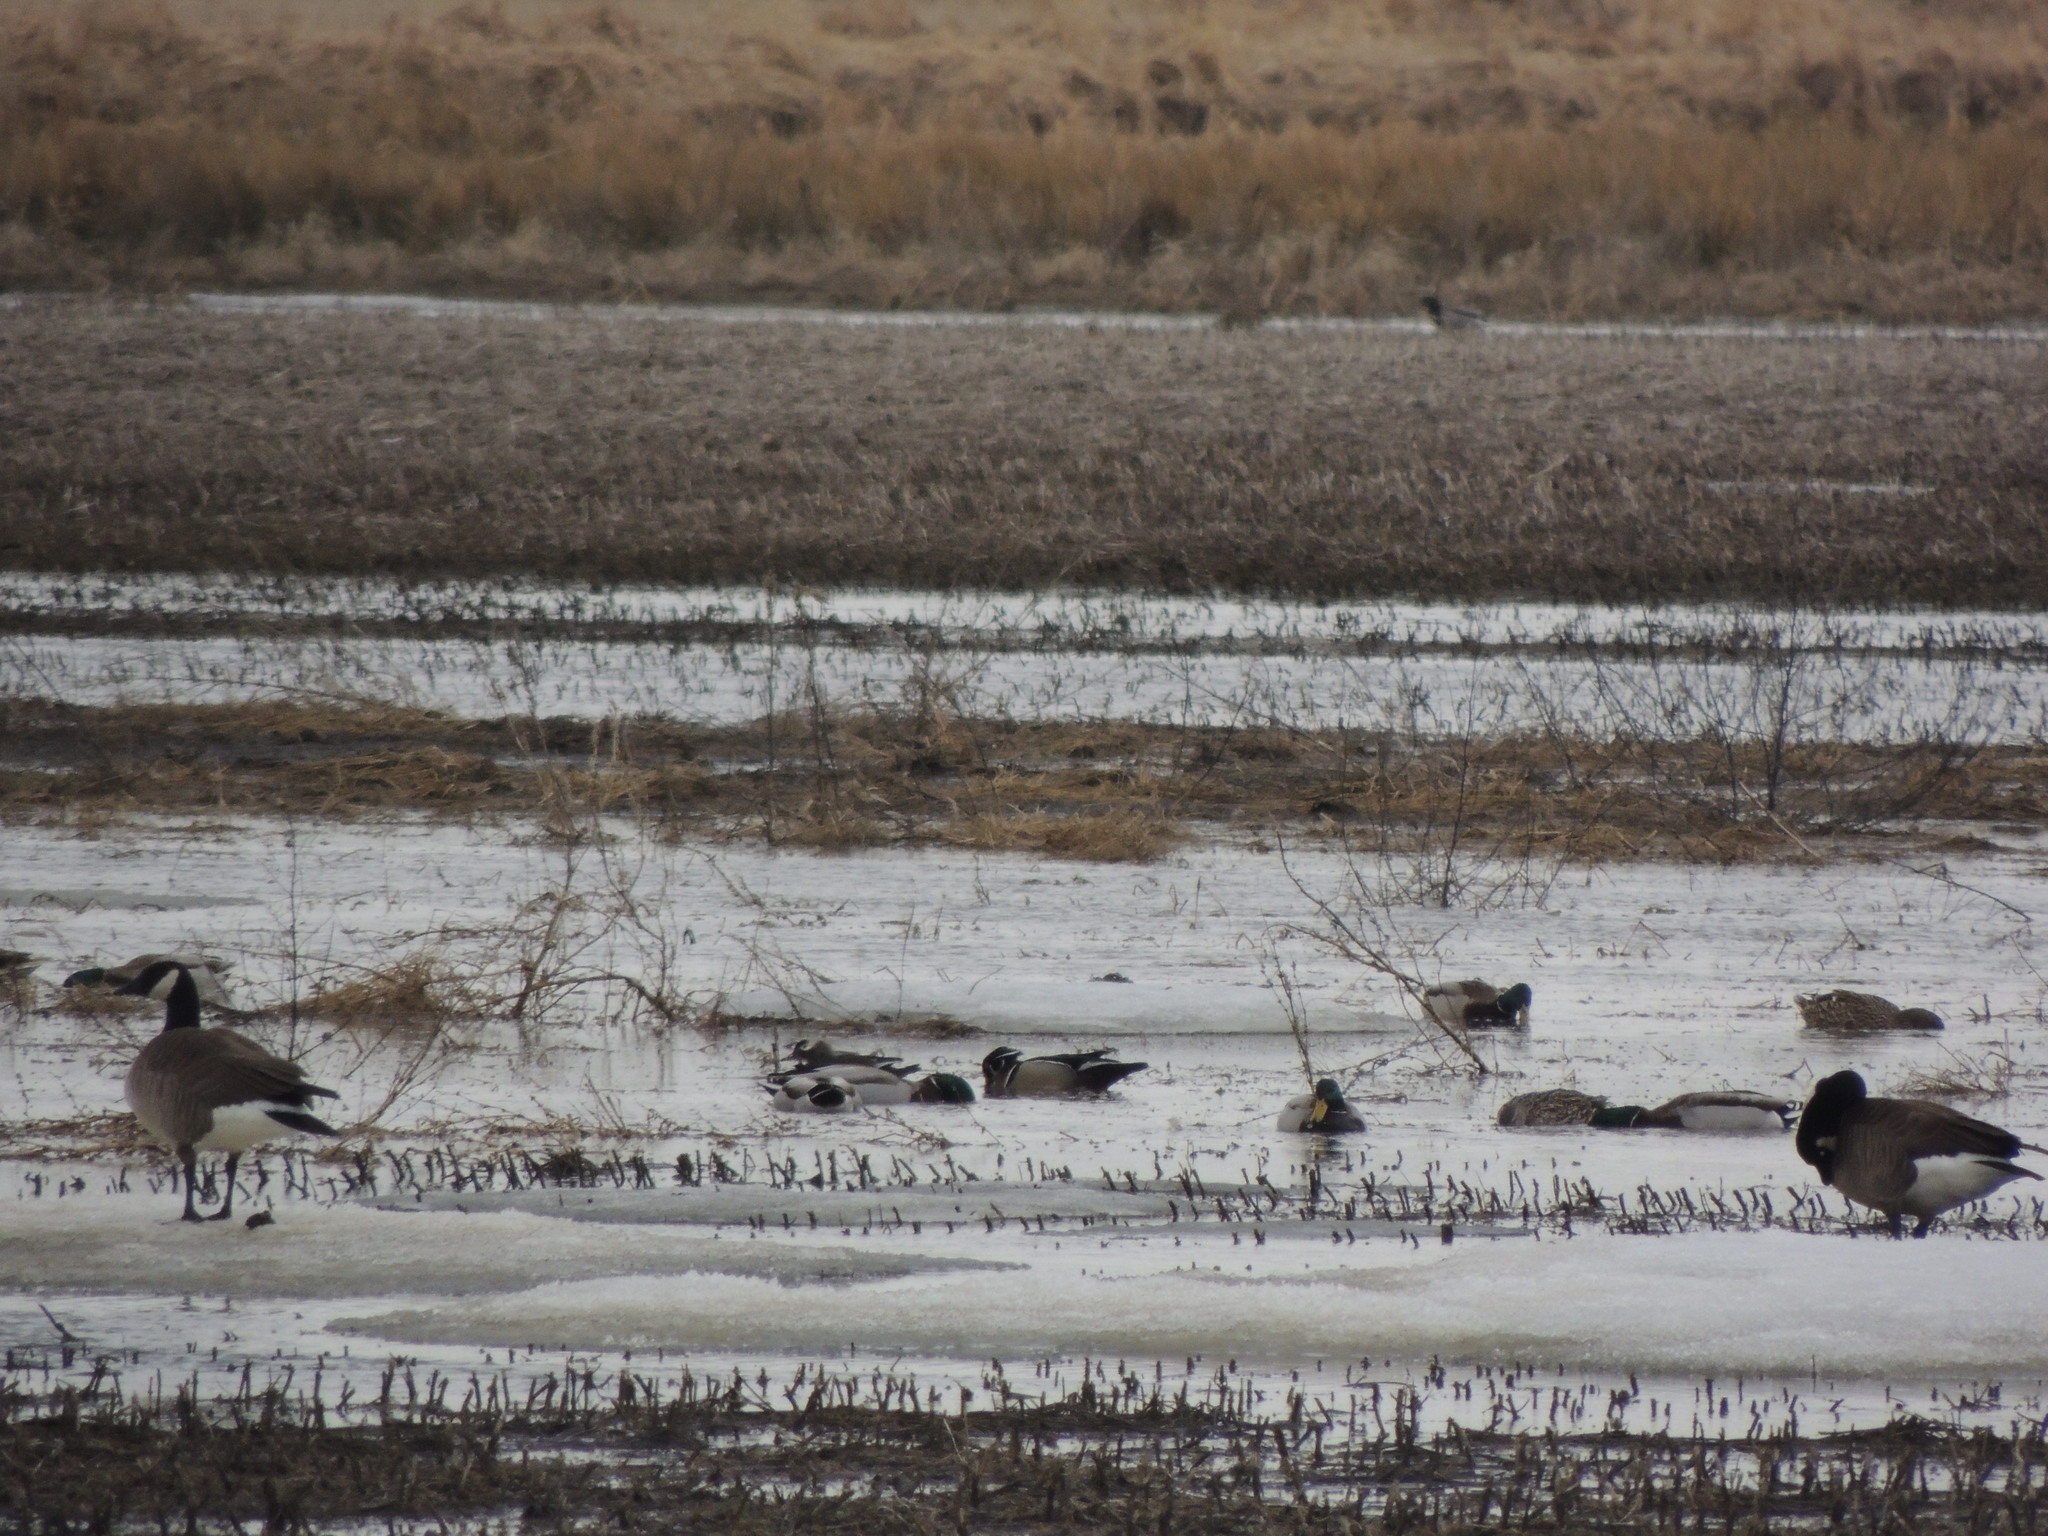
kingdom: Animalia
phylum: Chordata
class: Aves
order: Anseriformes
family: Anatidae
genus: Anas
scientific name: Anas platyrhynchos
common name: Mallard
